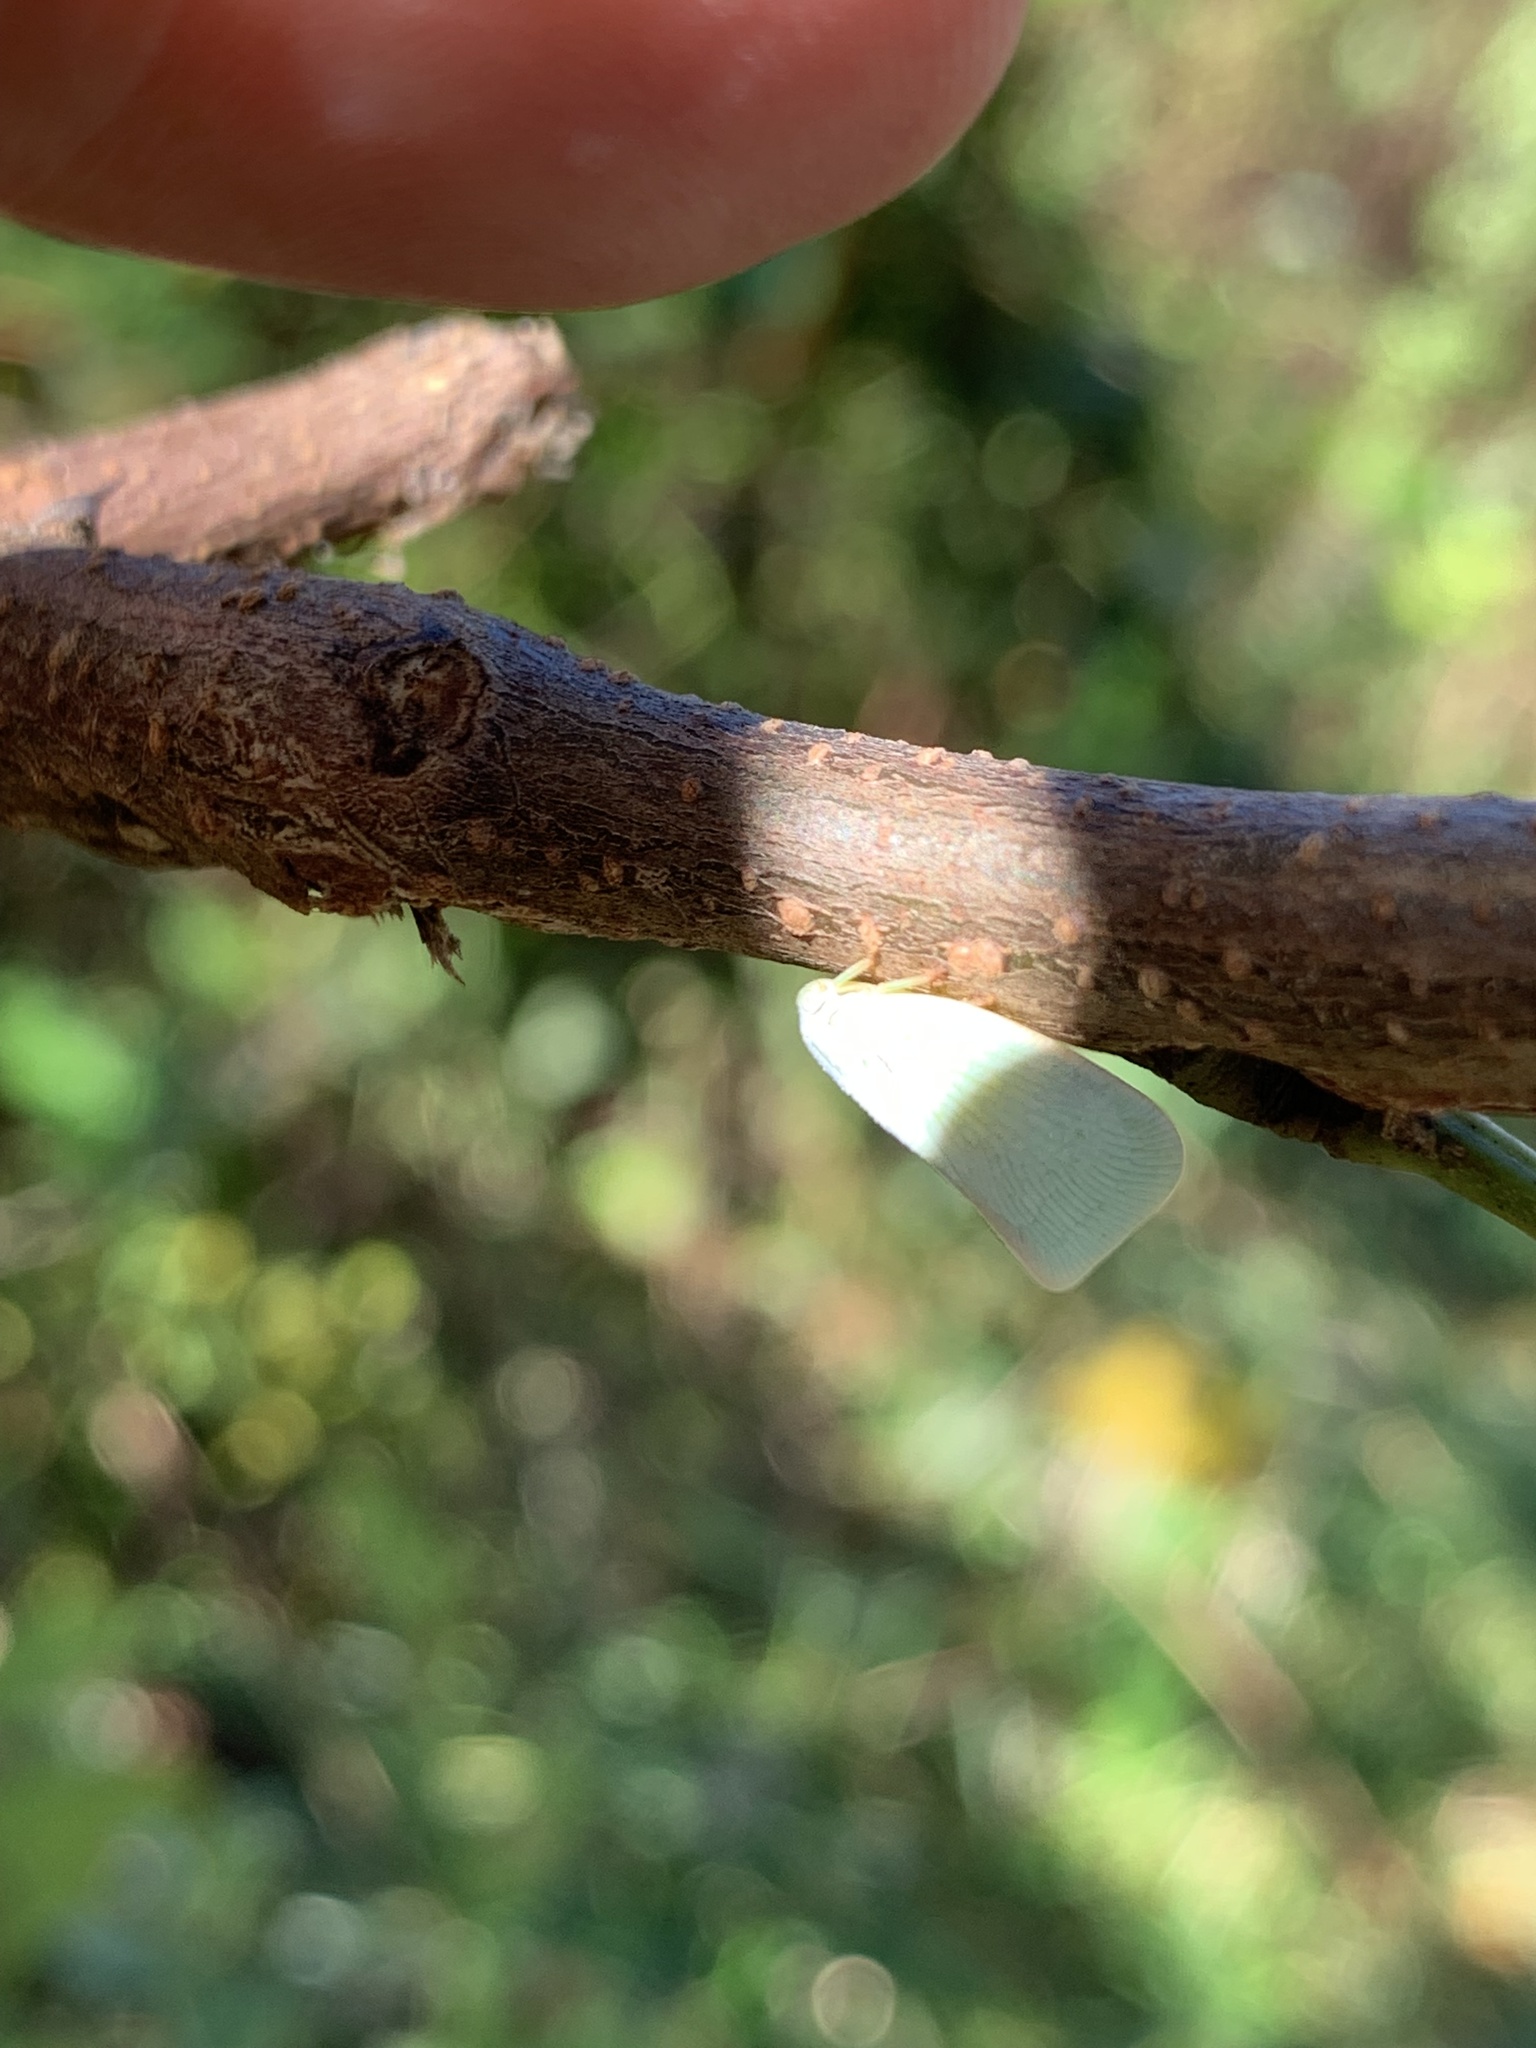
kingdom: Animalia
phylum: Arthropoda
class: Insecta
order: Hemiptera
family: Flatidae
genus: Flatormenis
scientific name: Flatormenis proxima
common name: Northern flatid planthopper
